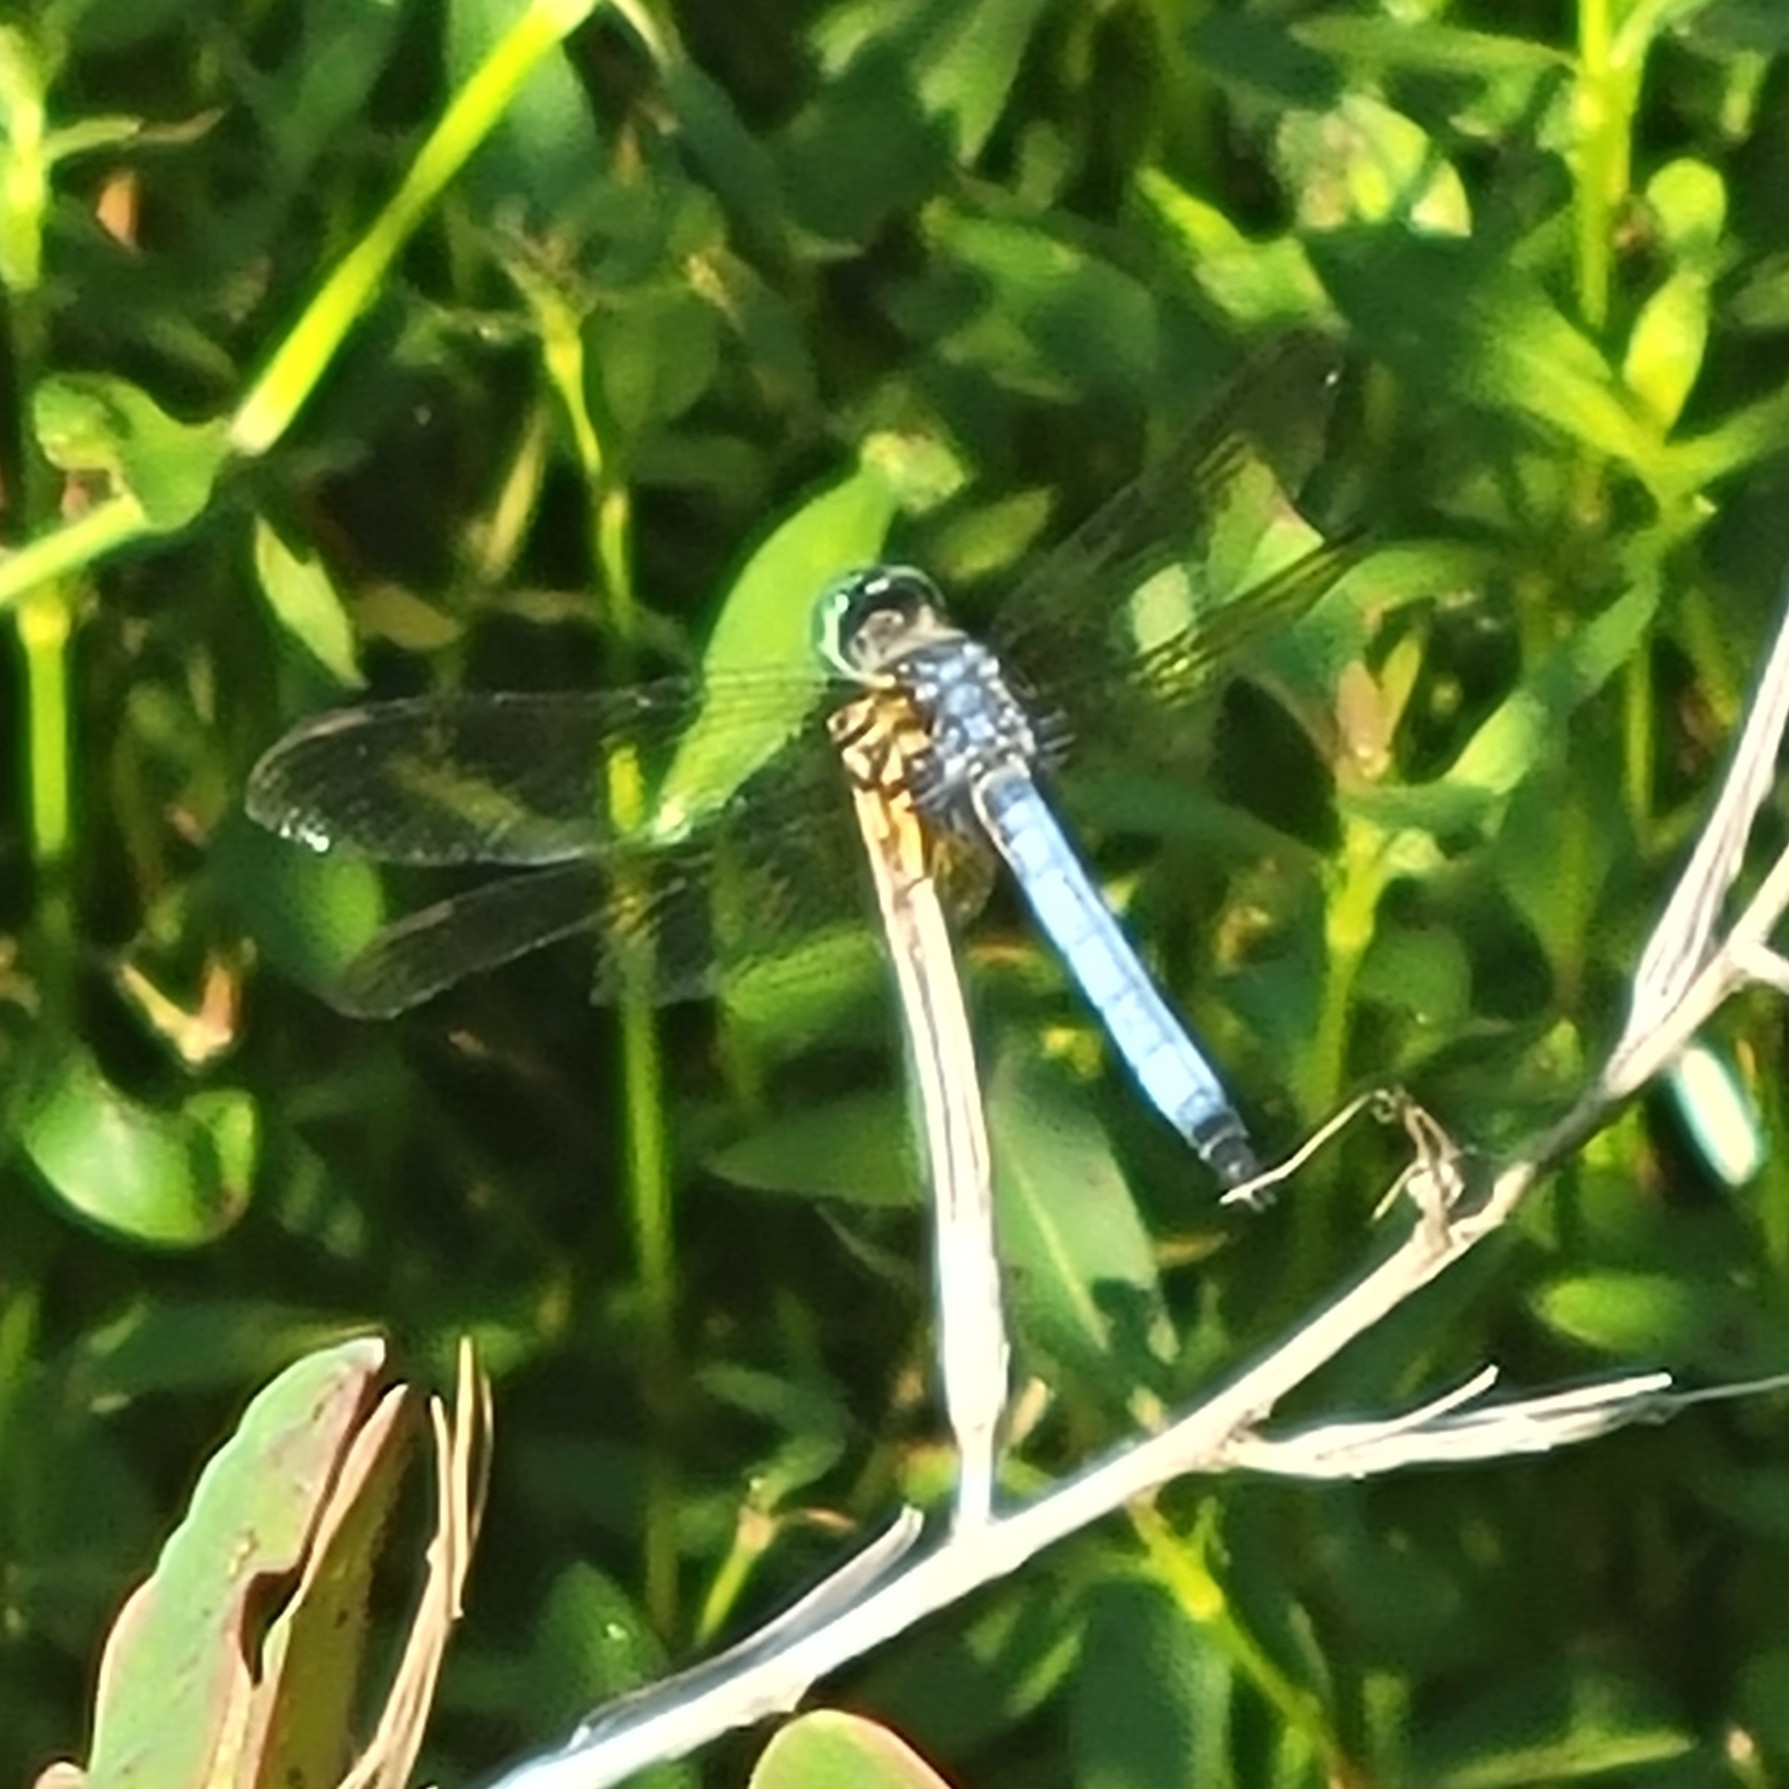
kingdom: Animalia
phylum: Arthropoda
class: Insecta
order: Odonata
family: Libellulidae
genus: Pachydiplax
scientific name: Pachydiplax longipennis
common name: Blue dasher
